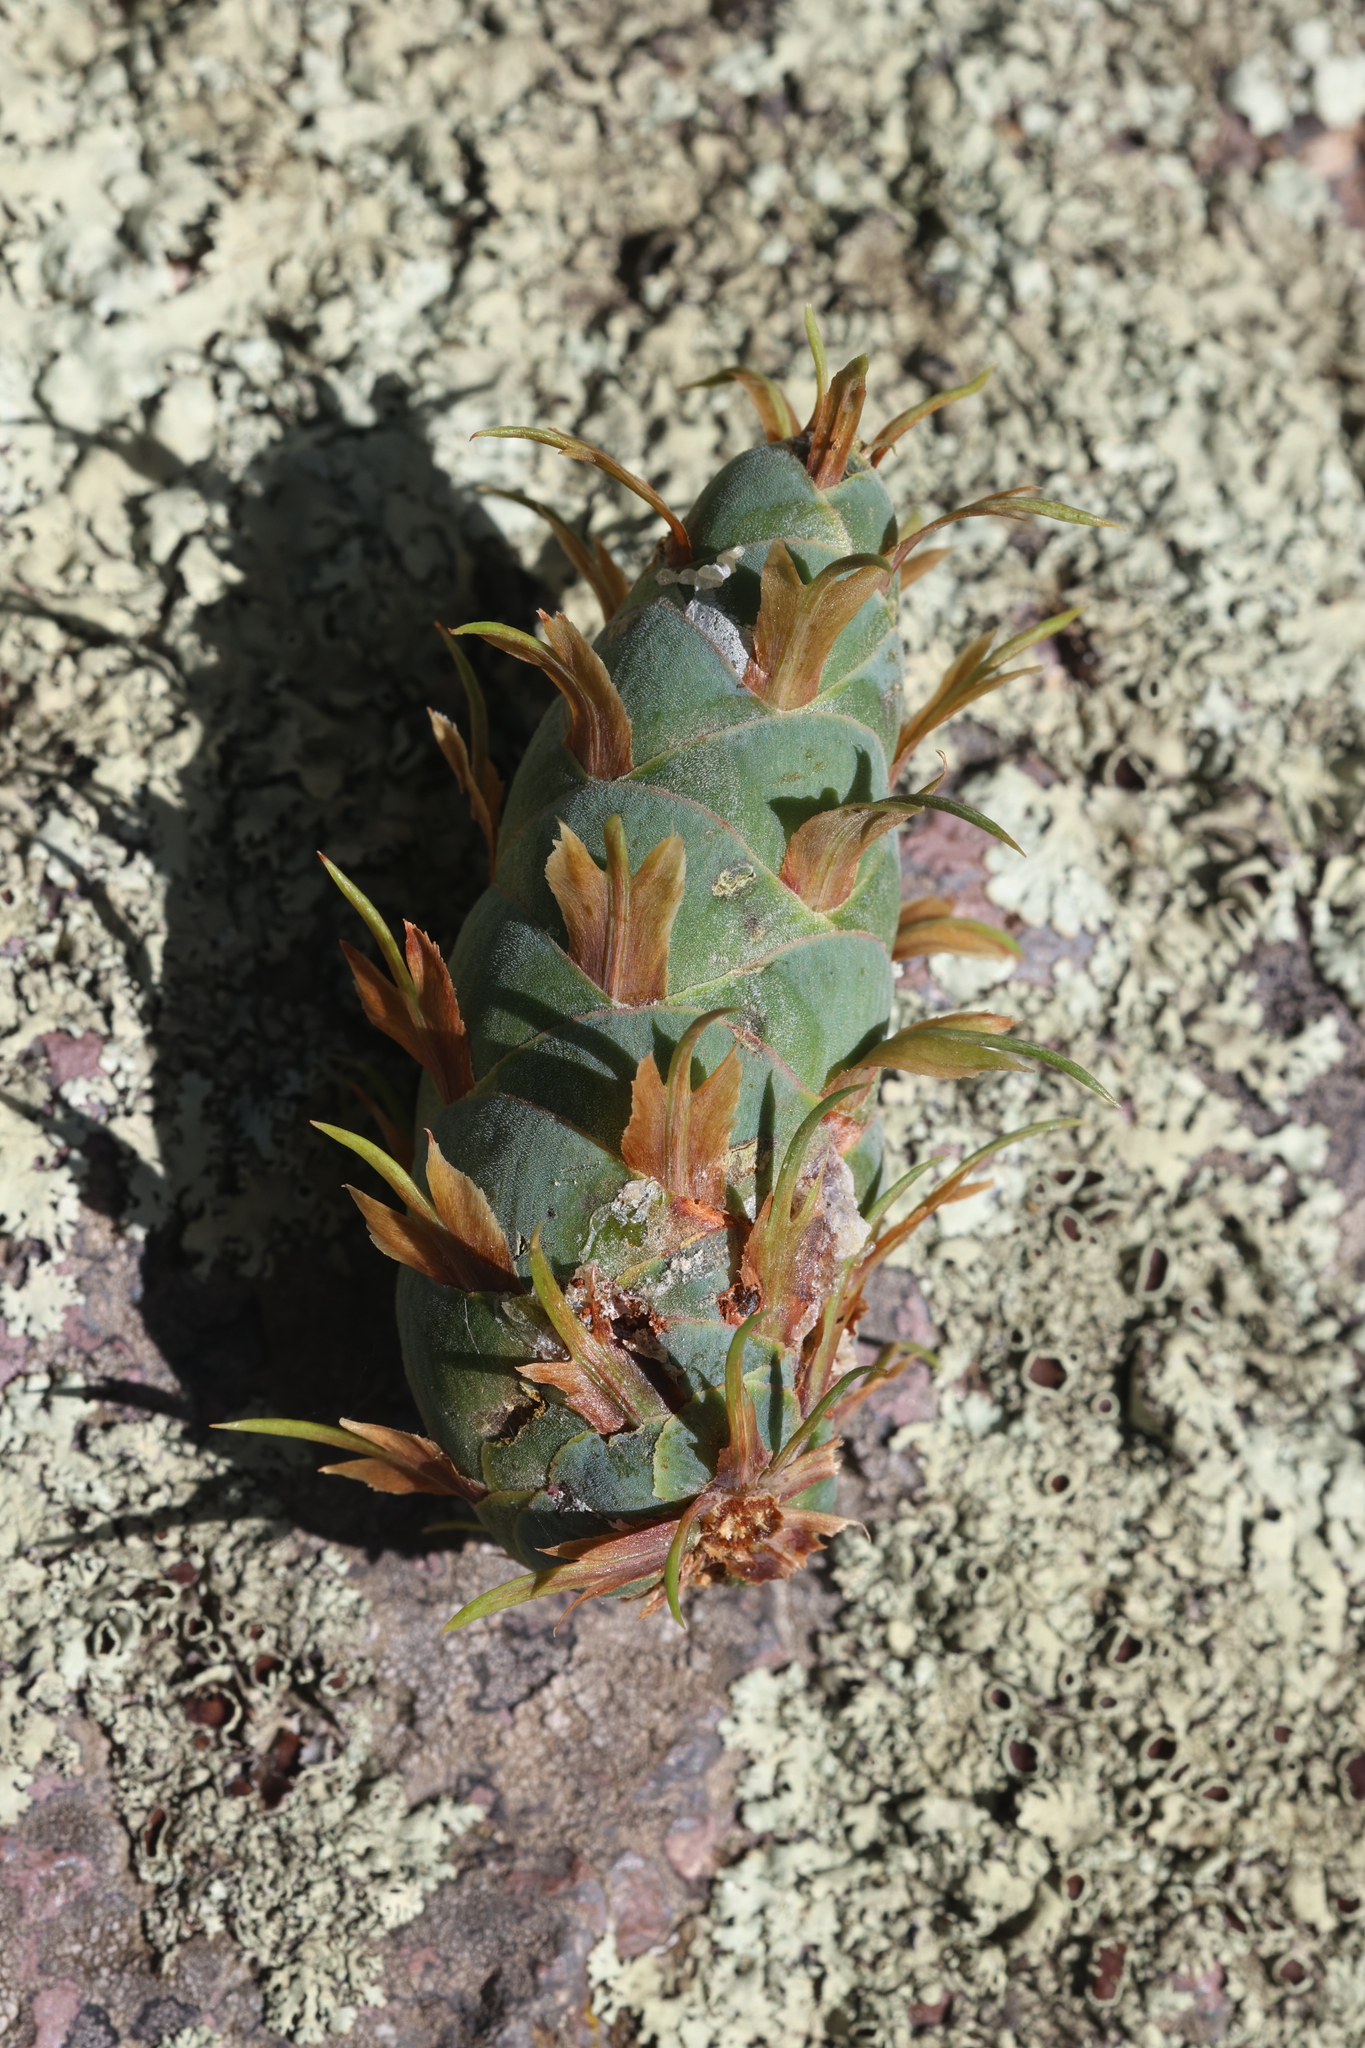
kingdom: Plantae
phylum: Tracheophyta
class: Pinopsida
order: Pinales
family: Pinaceae
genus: Pseudotsuga
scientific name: Pseudotsuga menziesii
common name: Douglas fir
